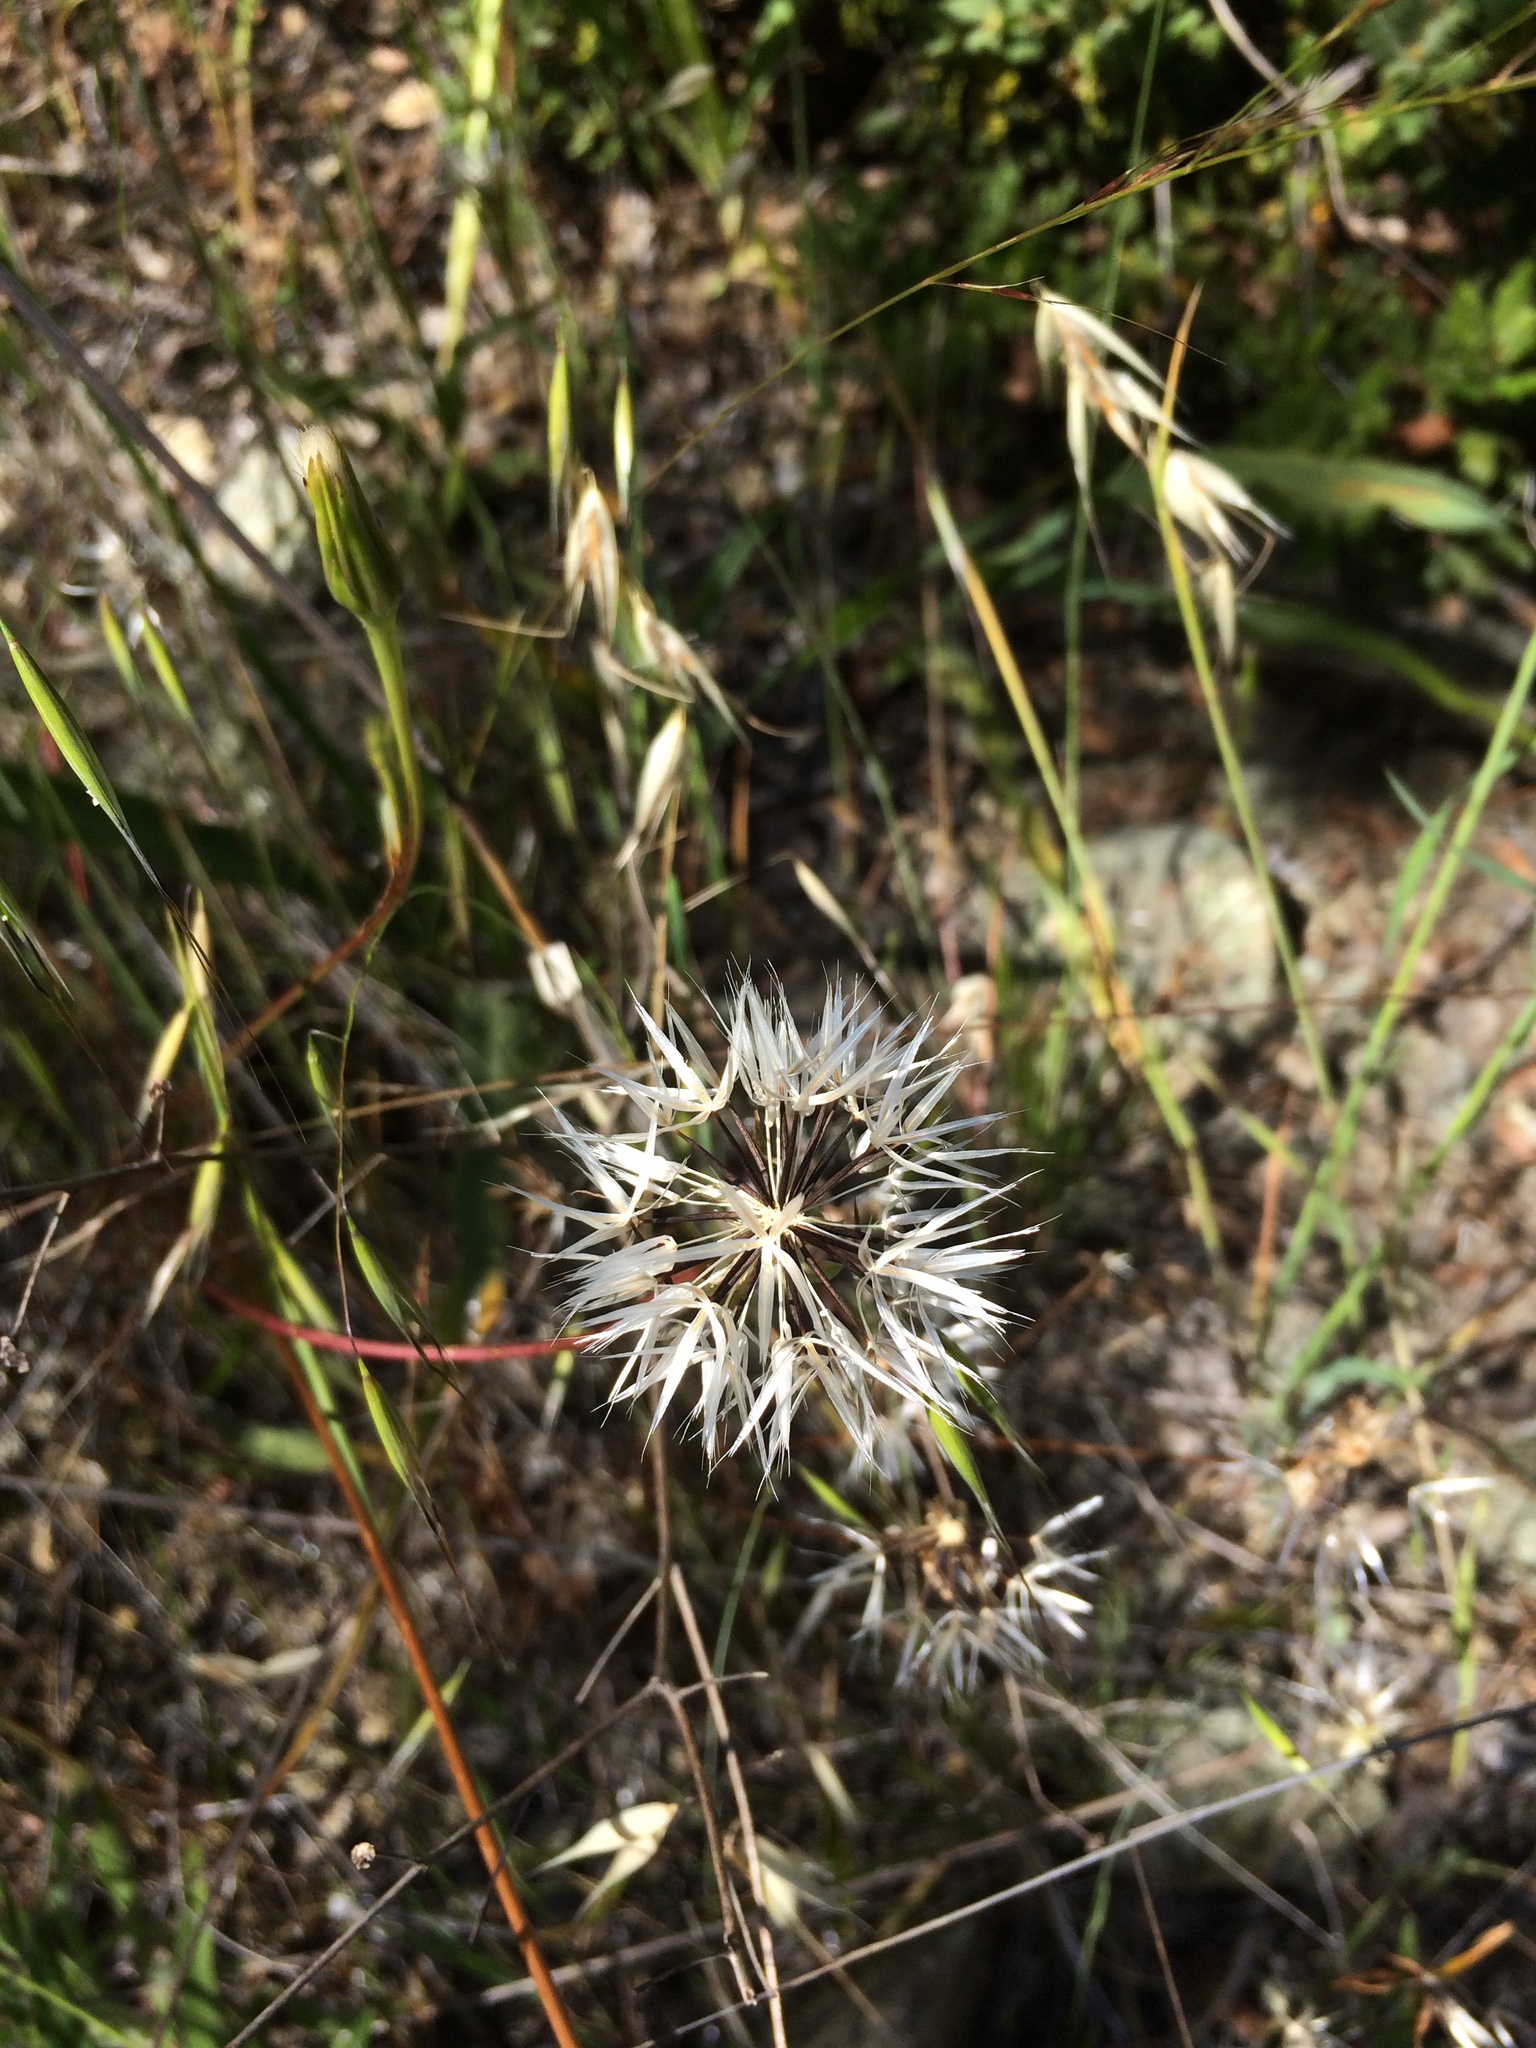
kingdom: Plantae
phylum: Tracheophyta
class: Magnoliopsida
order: Asterales
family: Asteraceae
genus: Microseris
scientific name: Microseris lindleyi
